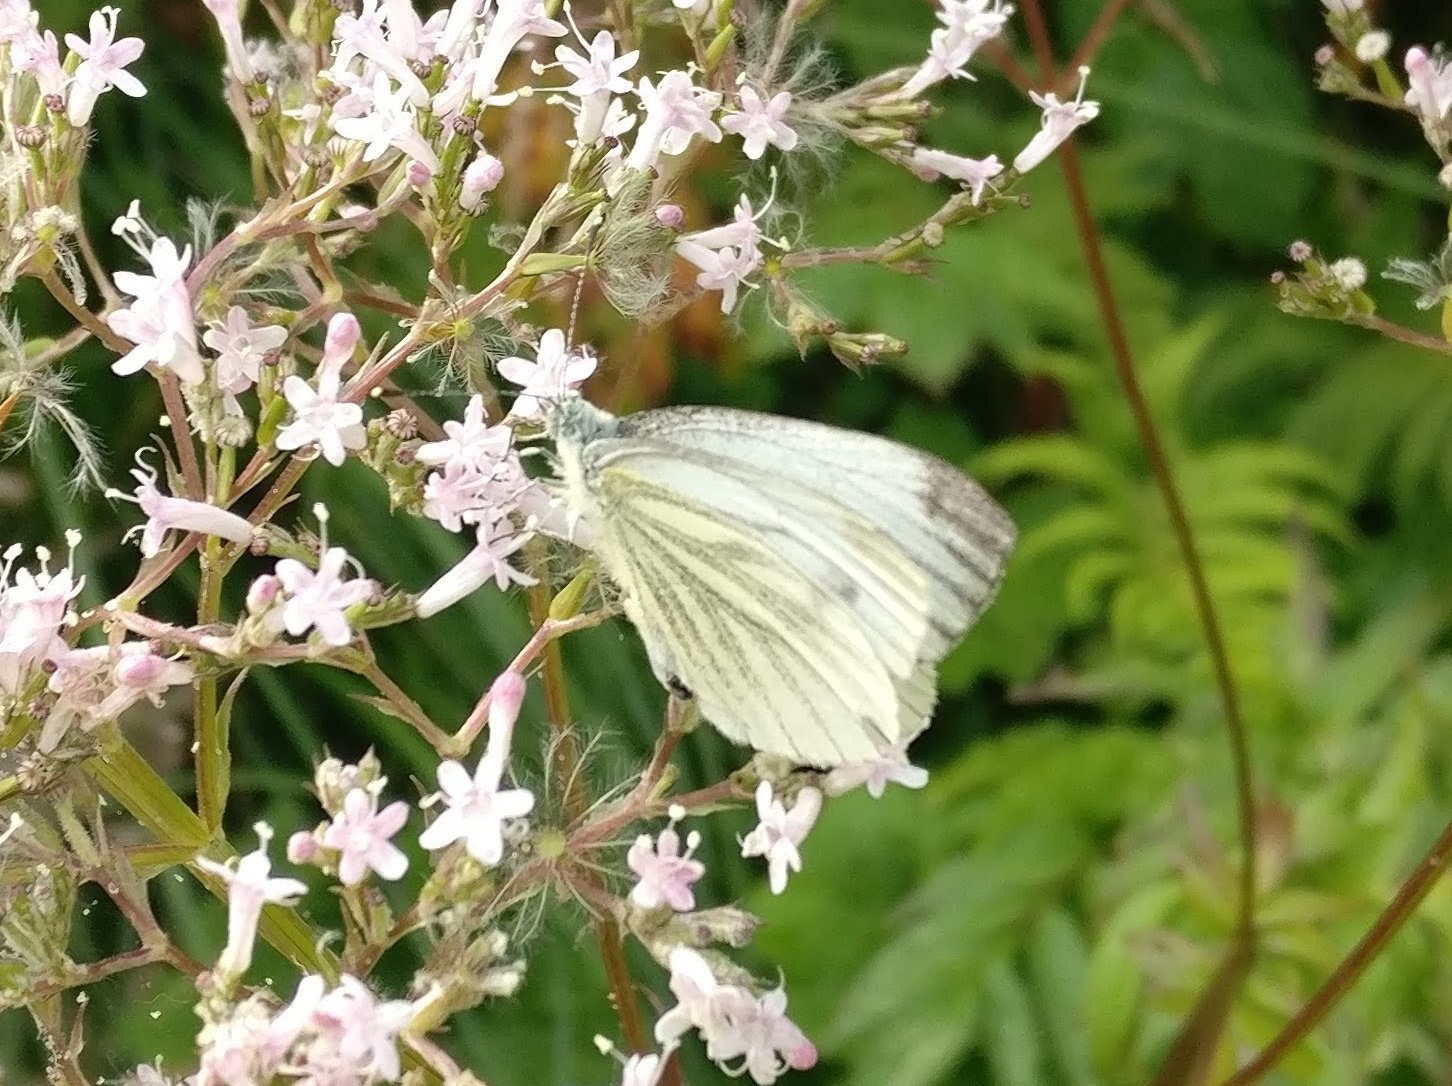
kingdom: Animalia
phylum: Arthropoda
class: Insecta
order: Lepidoptera
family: Pieridae
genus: Pieris
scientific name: Pieris napi
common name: Green-veined white
